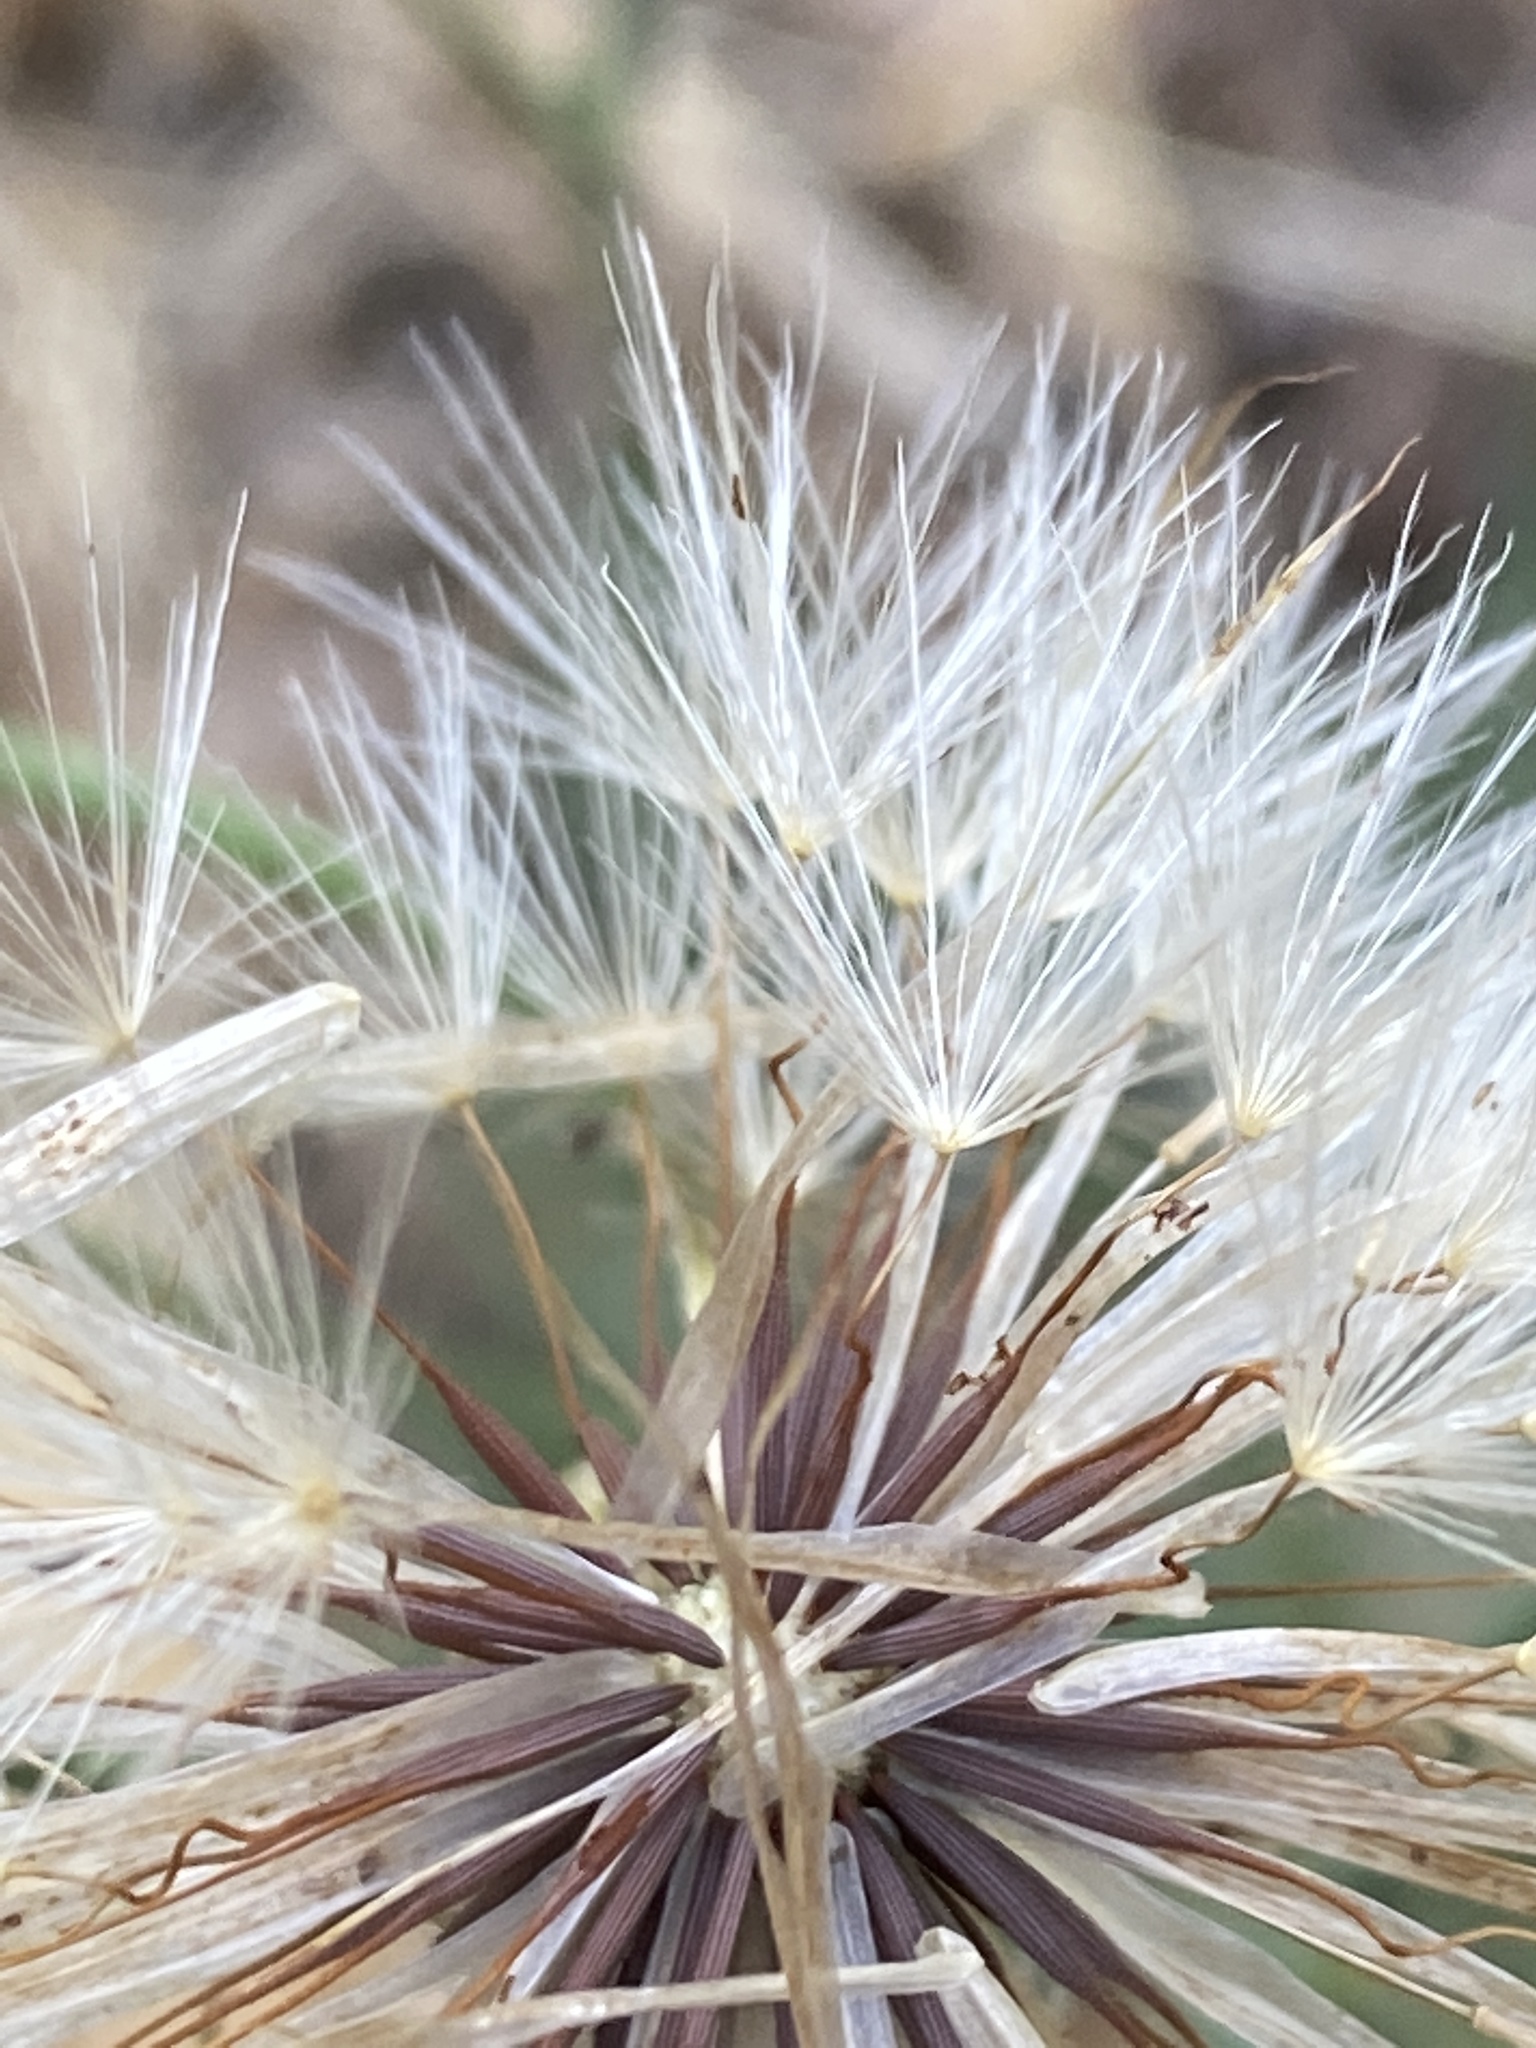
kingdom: Plantae
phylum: Tracheophyta
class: Magnoliopsida
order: Asterales
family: Asteraceae
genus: Hypochaeris
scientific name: Hypochaeris radicata
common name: Flatweed
